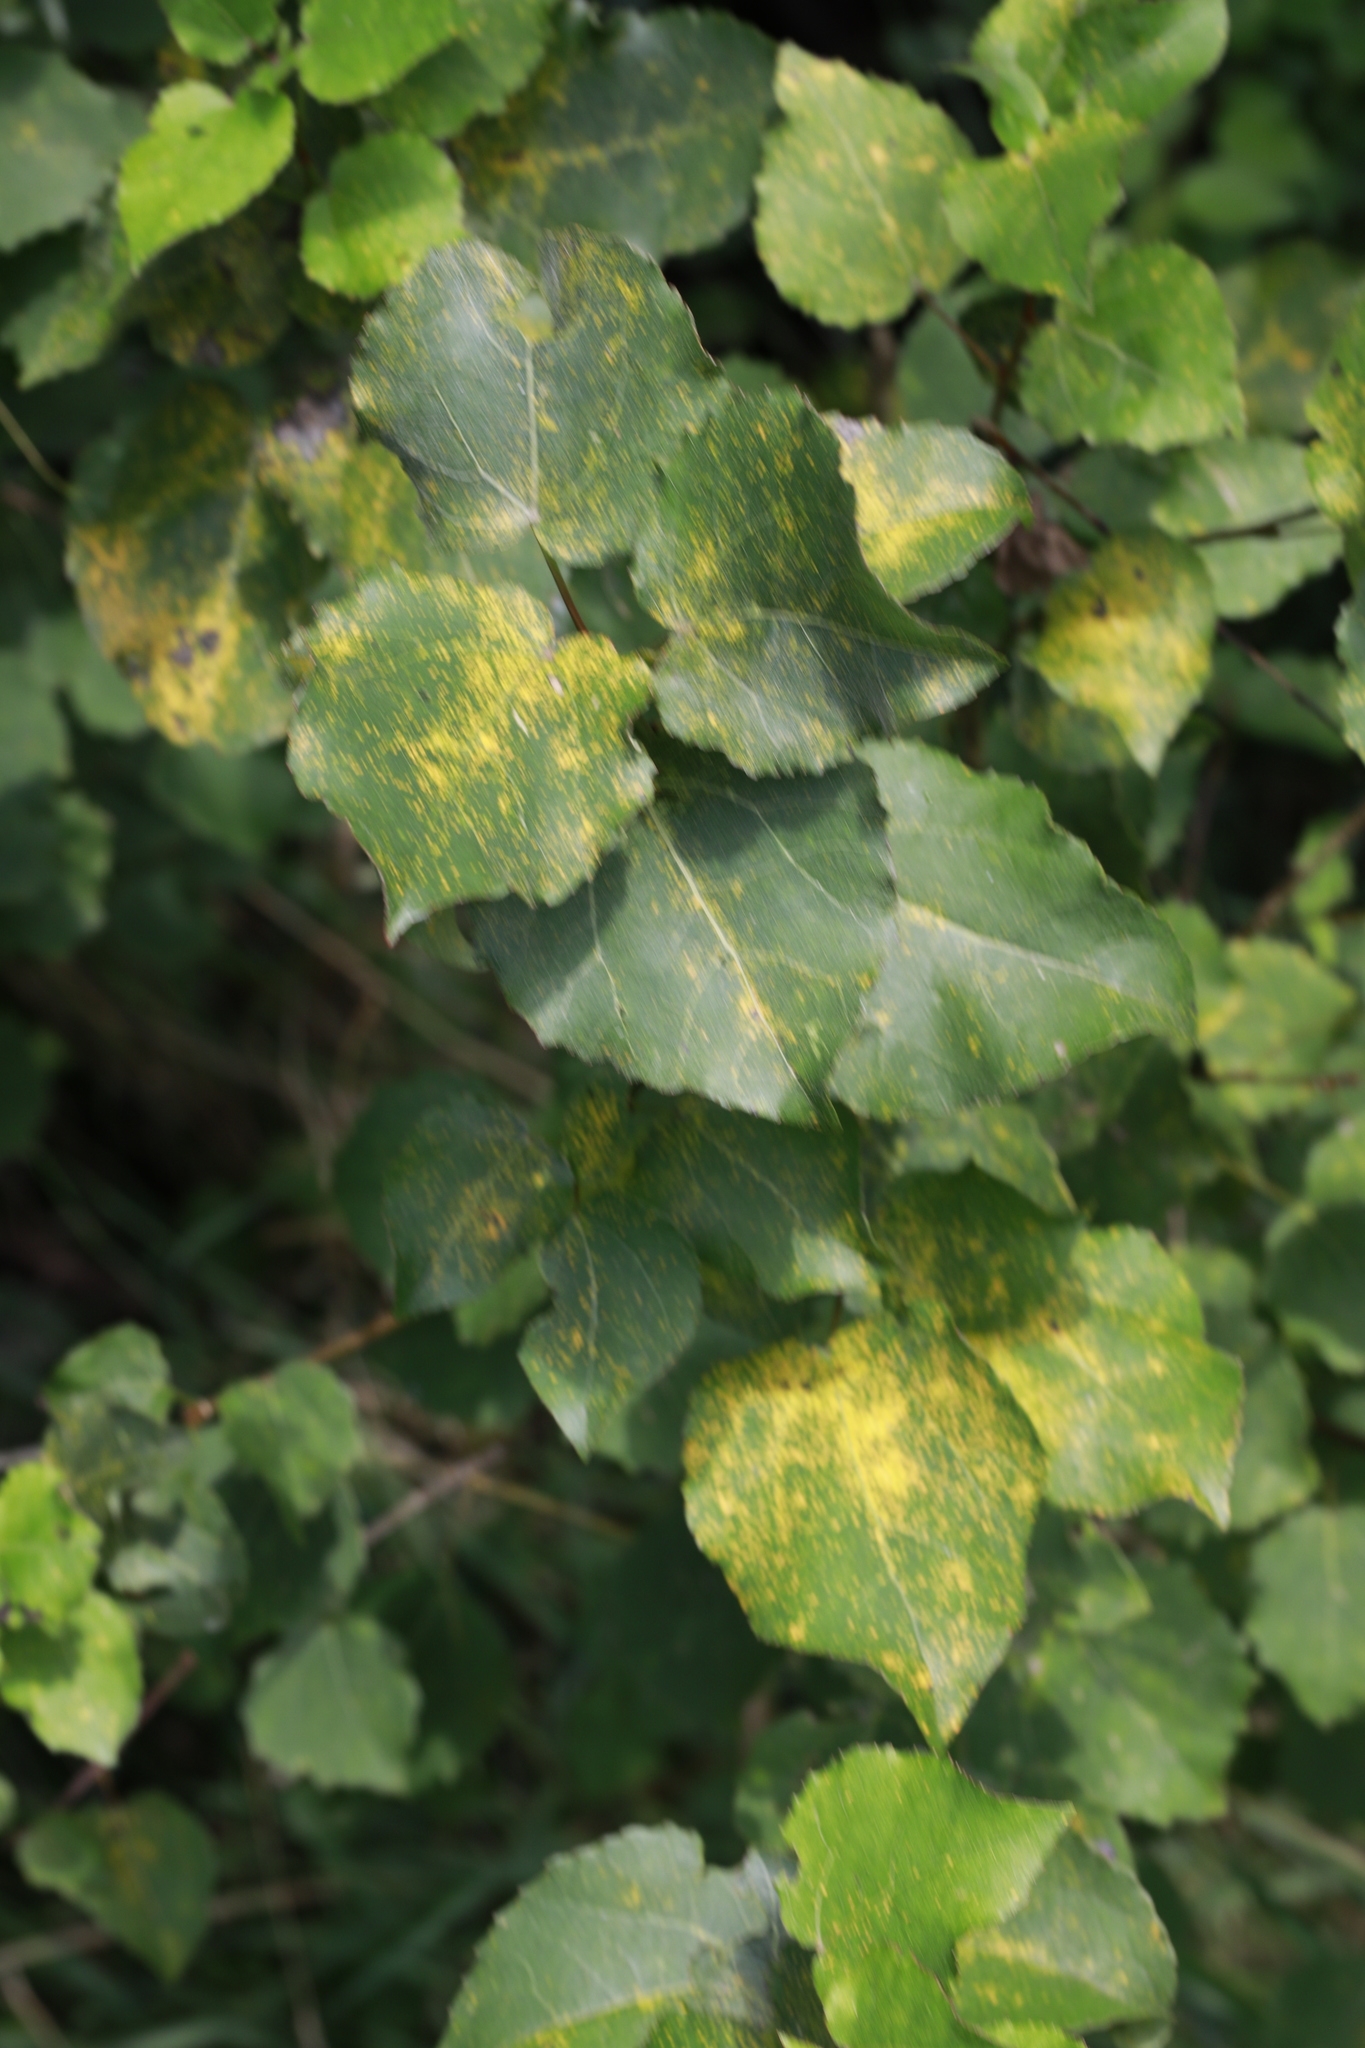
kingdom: Plantae
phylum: Tracheophyta
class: Magnoliopsida
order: Malpighiales
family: Salicaceae
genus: Populus
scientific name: Populus tremula
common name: European aspen
